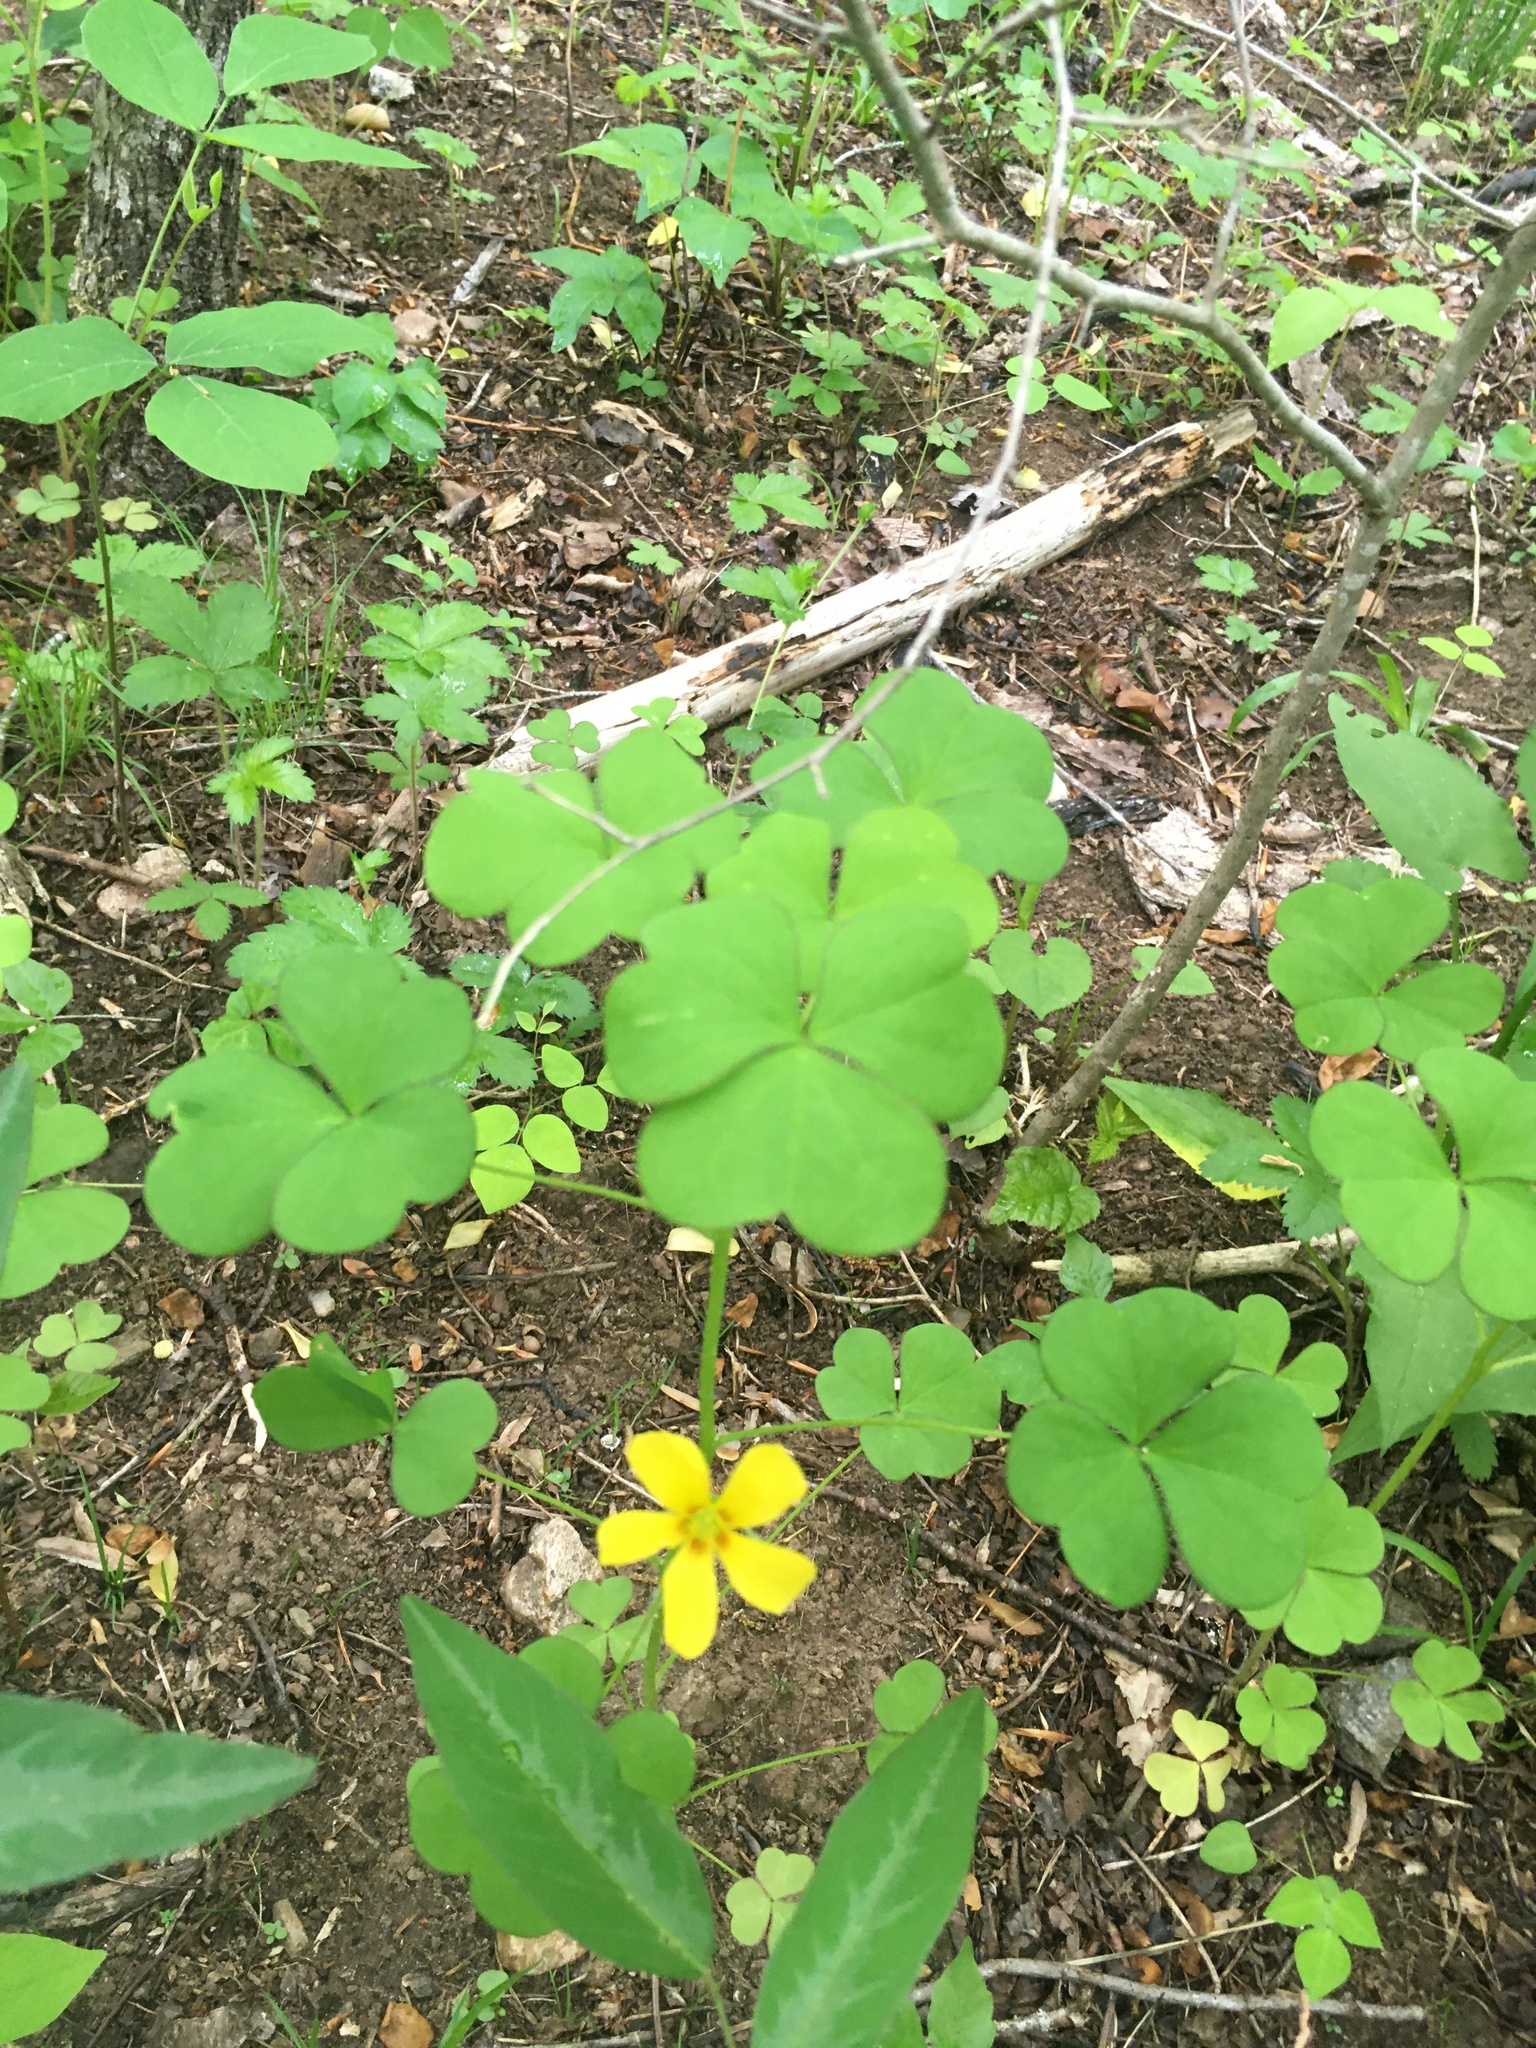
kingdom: Plantae
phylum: Tracheophyta
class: Magnoliopsida
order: Oxalidales
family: Oxalidaceae
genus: Oxalis
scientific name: Oxalis grandis
